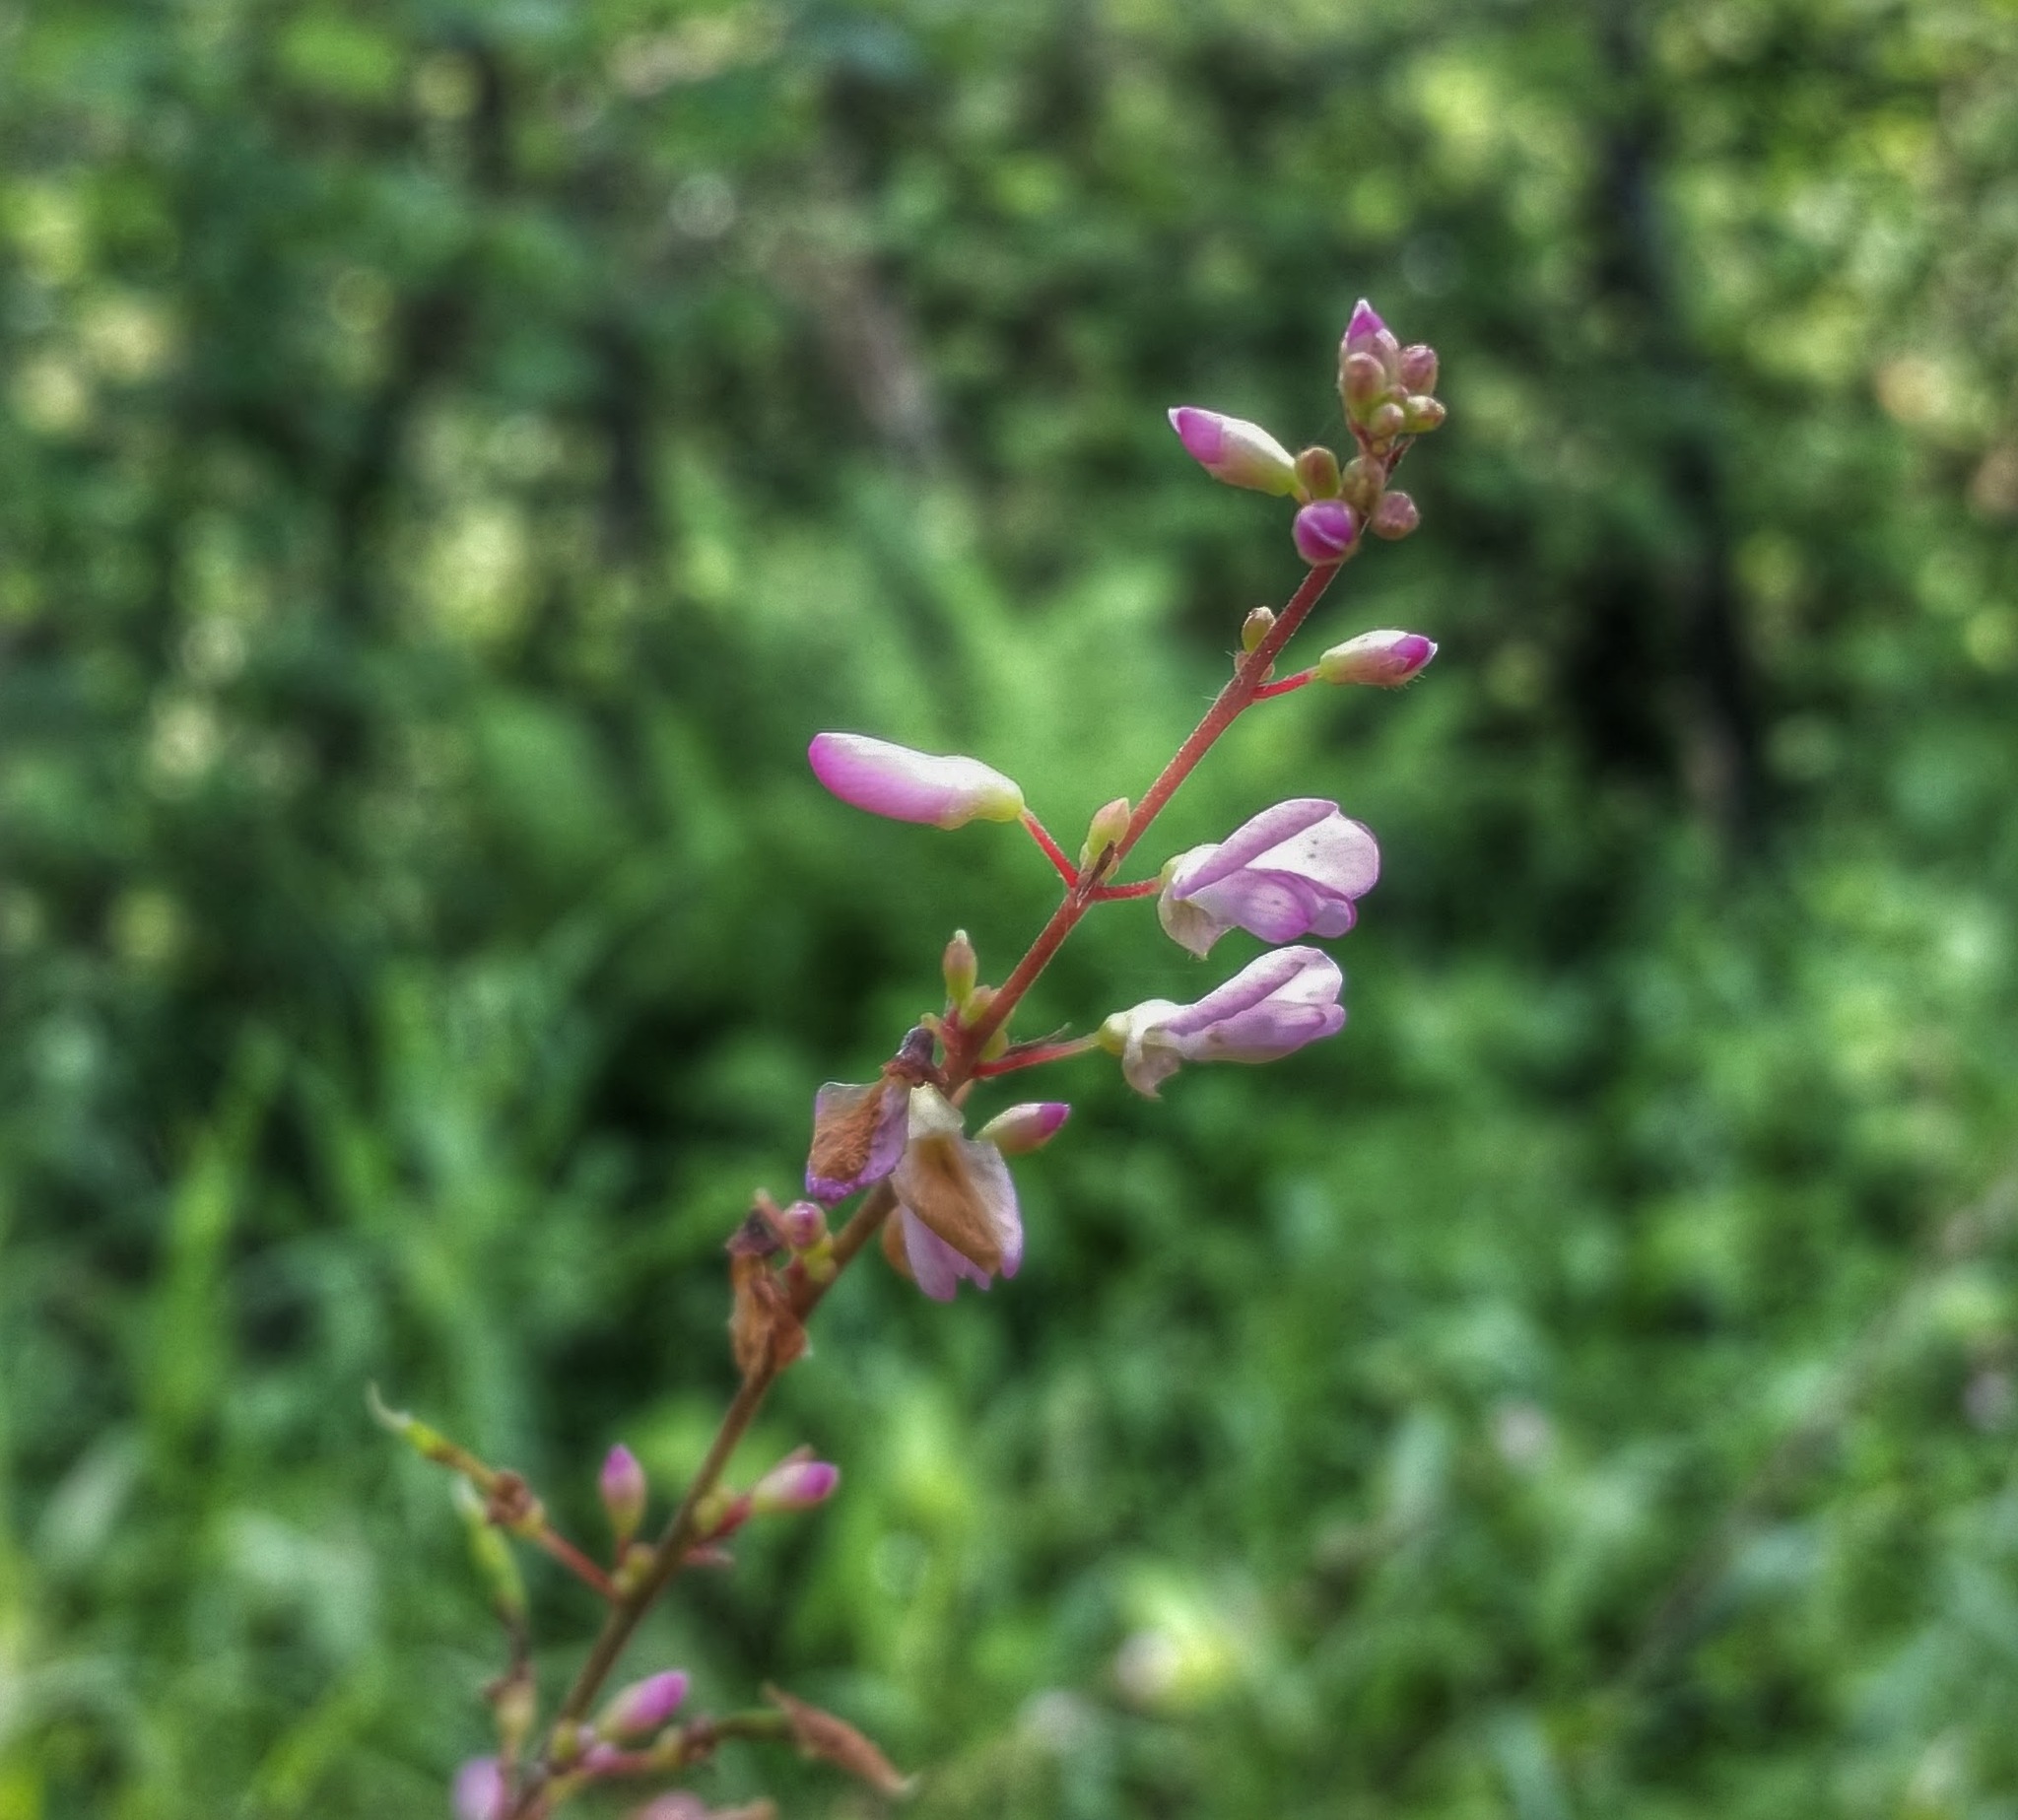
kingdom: Plantae
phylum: Tracheophyta
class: Magnoliopsida
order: Fabales
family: Fabaceae
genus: Hylodesmum
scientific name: Hylodesmum glutinosum
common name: Clustered-leaved tick-trefoil
